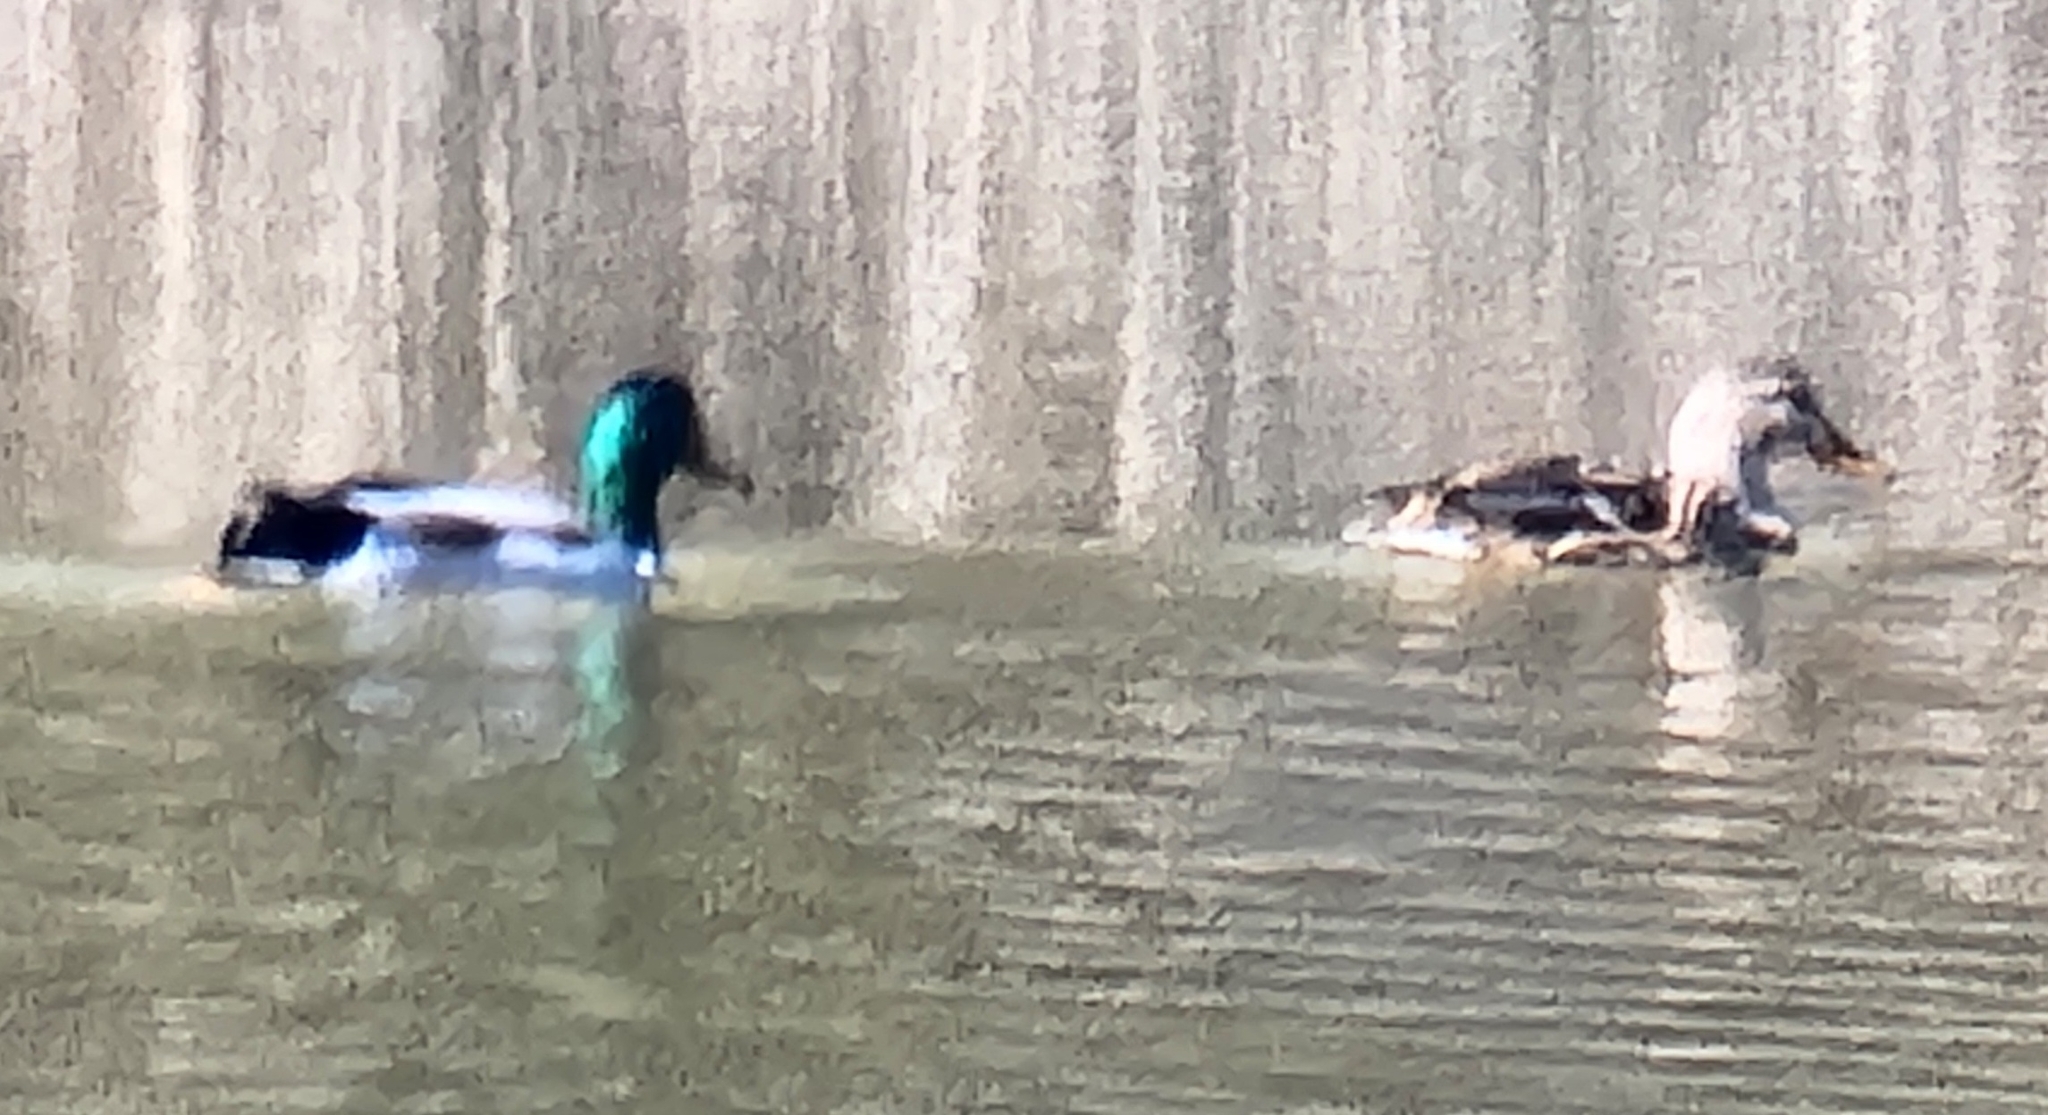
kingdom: Animalia
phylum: Chordata
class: Aves
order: Anseriformes
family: Anatidae
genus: Anas
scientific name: Anas platyrhynchos
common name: Mallard
